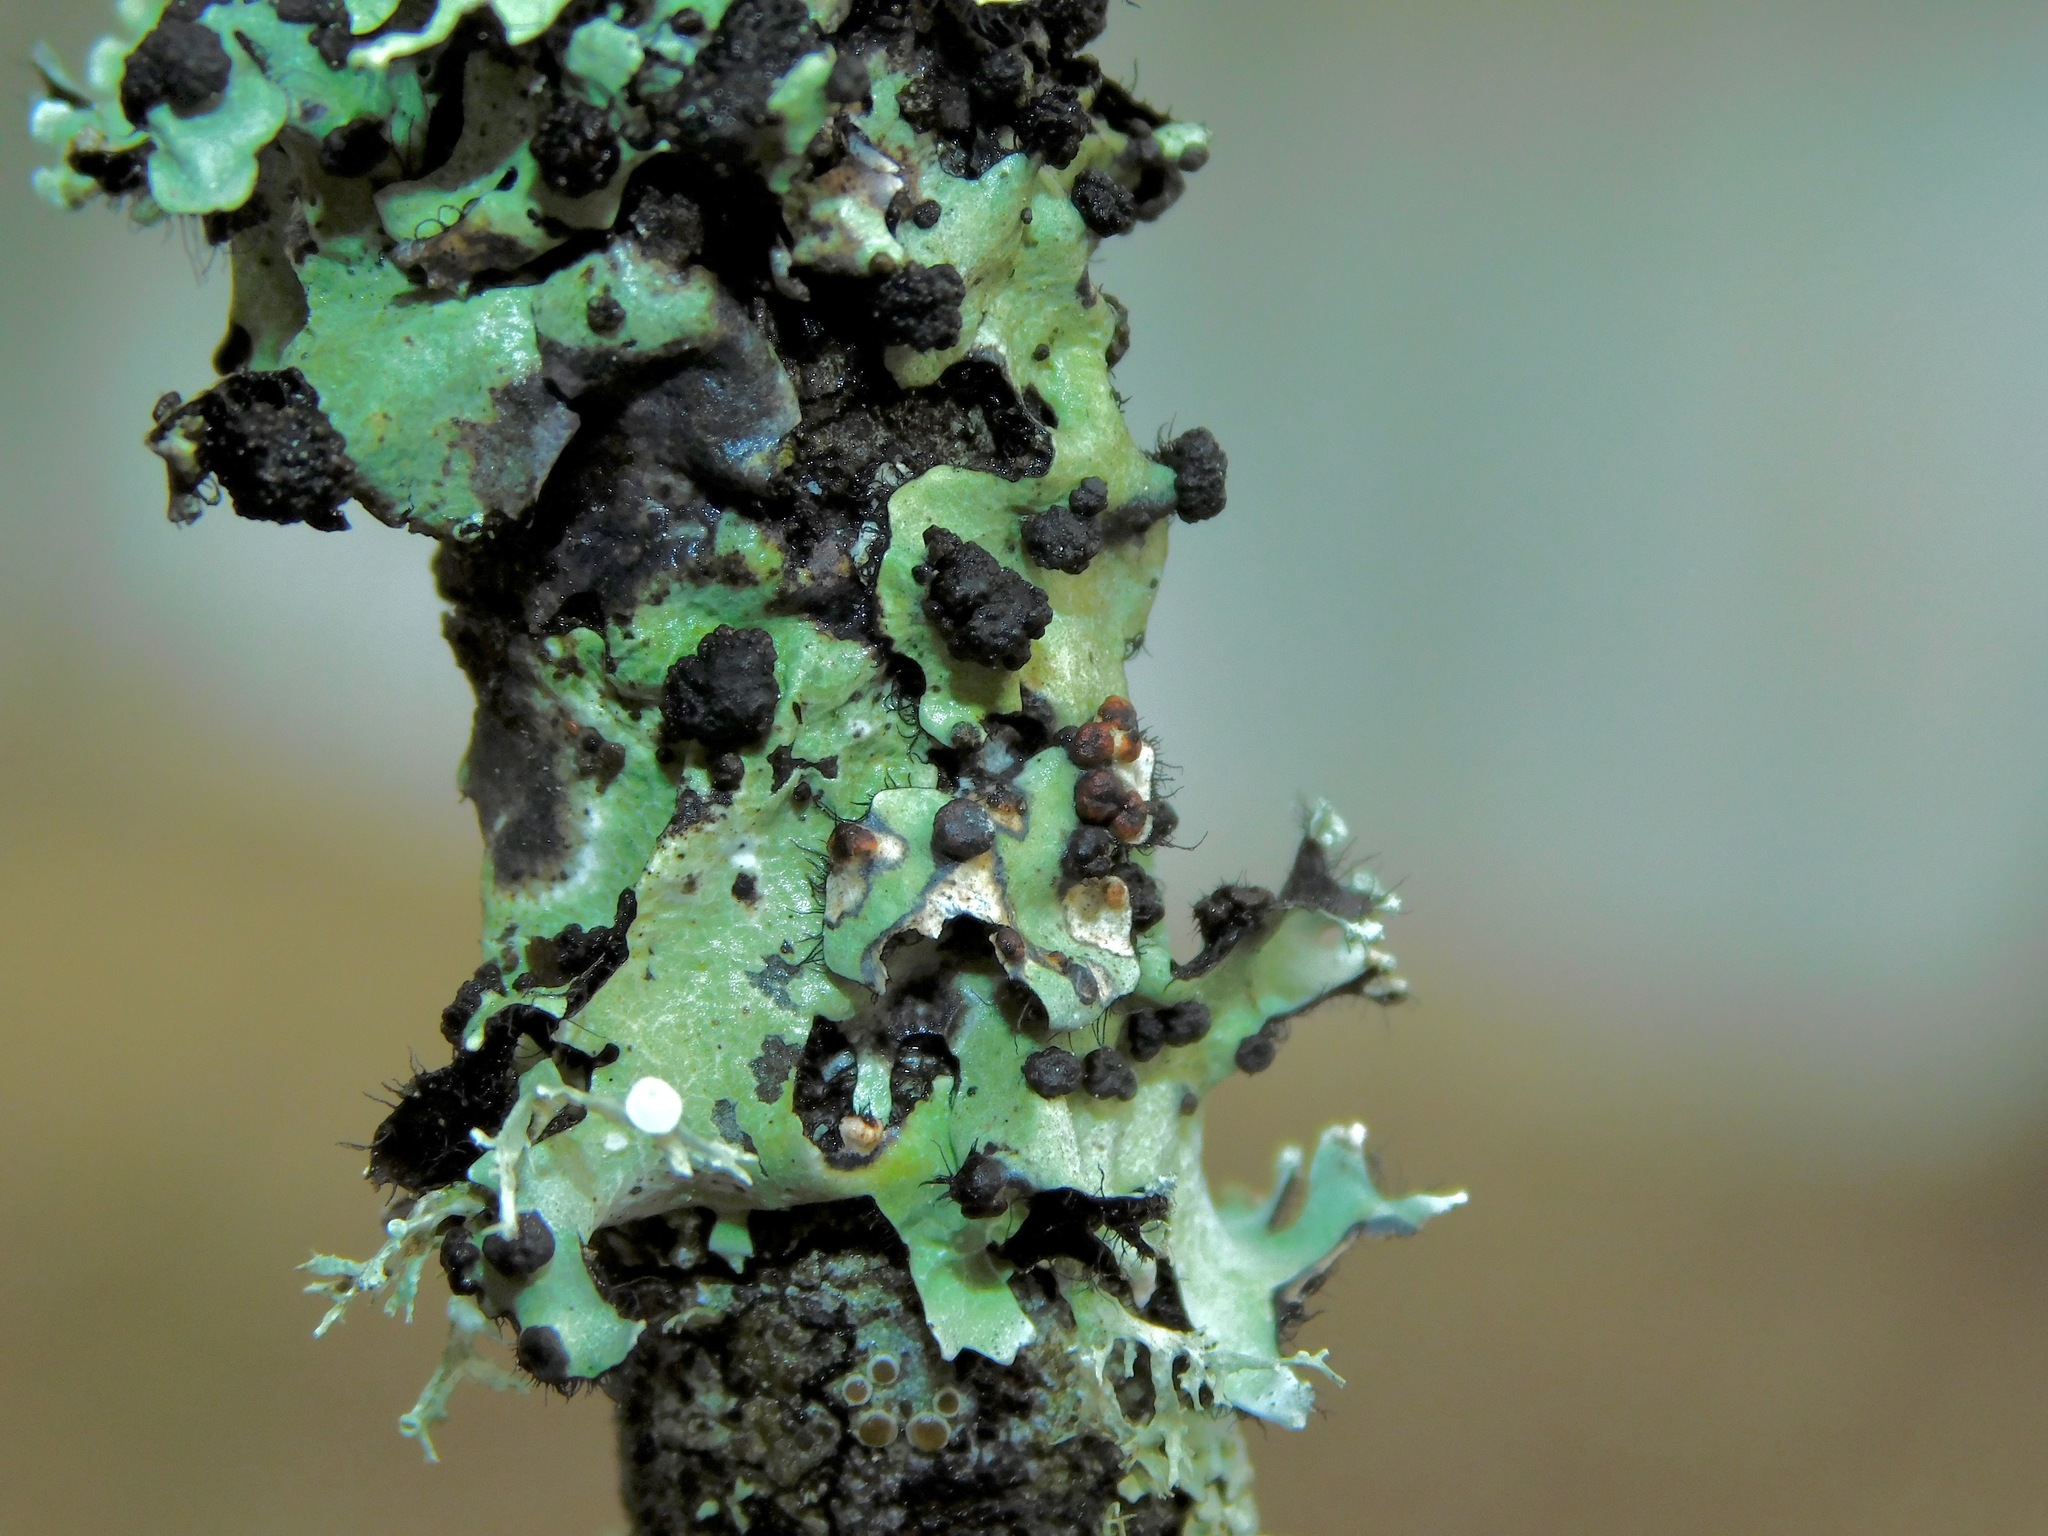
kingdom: Fungi
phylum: Basidiomycota
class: Tremellomycetes
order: Tremellales
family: Tremellaceae
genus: Tremella
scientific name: Tremella parmeliarum
